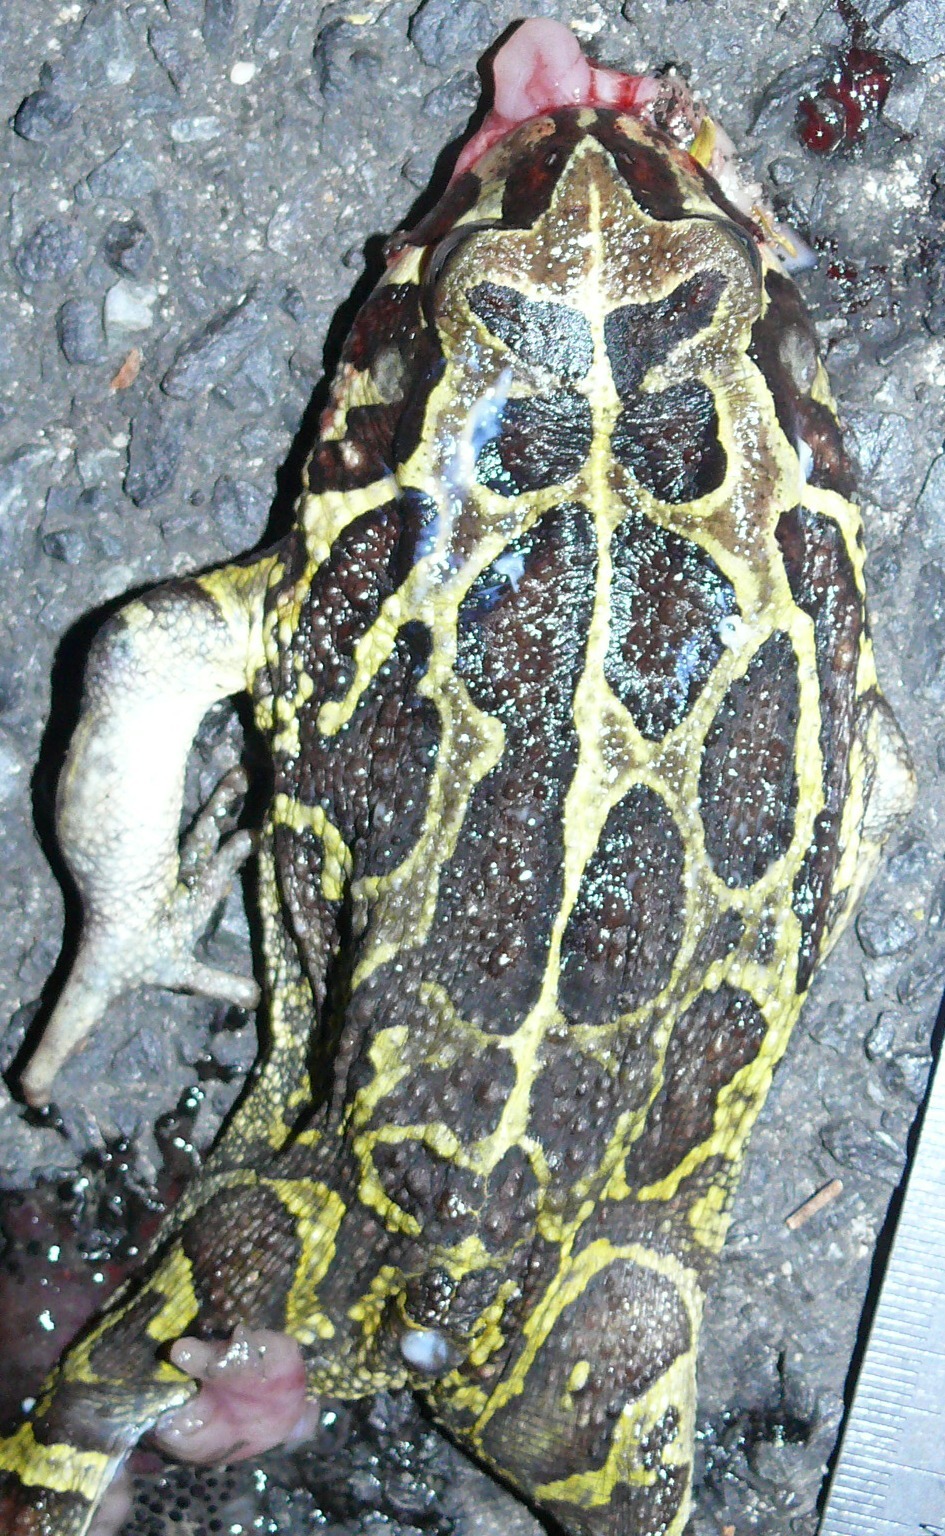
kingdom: Animalia
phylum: Chordata
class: Amphibia
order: Anura
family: Bufonidae
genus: Sclerophrys
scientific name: Sclerophrys pantherina
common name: Panther toad
